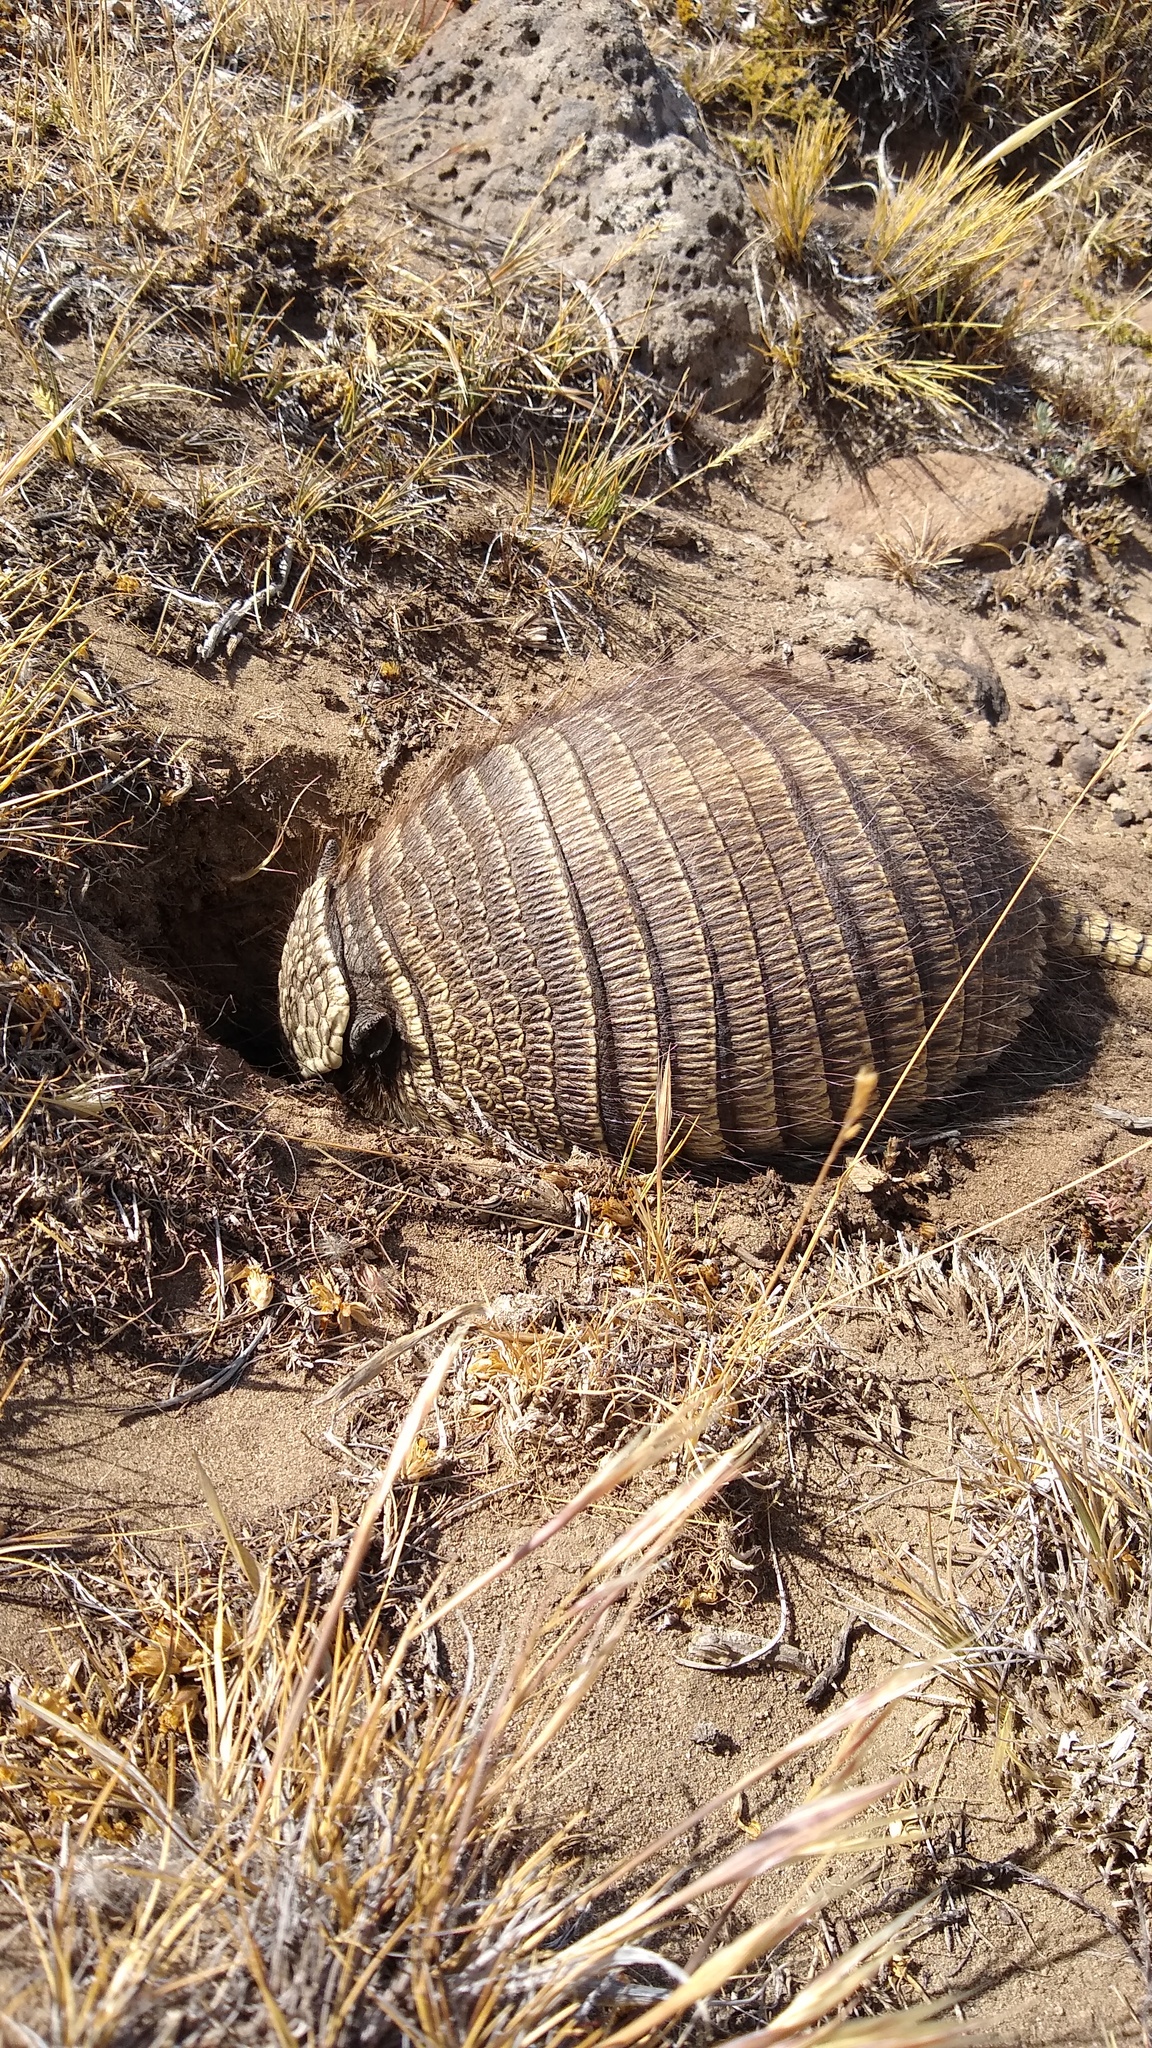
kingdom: Animalia
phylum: Chordata
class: Mammalia
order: Cingulata
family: Dasypodidae
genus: Zaedyus
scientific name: Zaedyus pichiy
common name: Pichi
